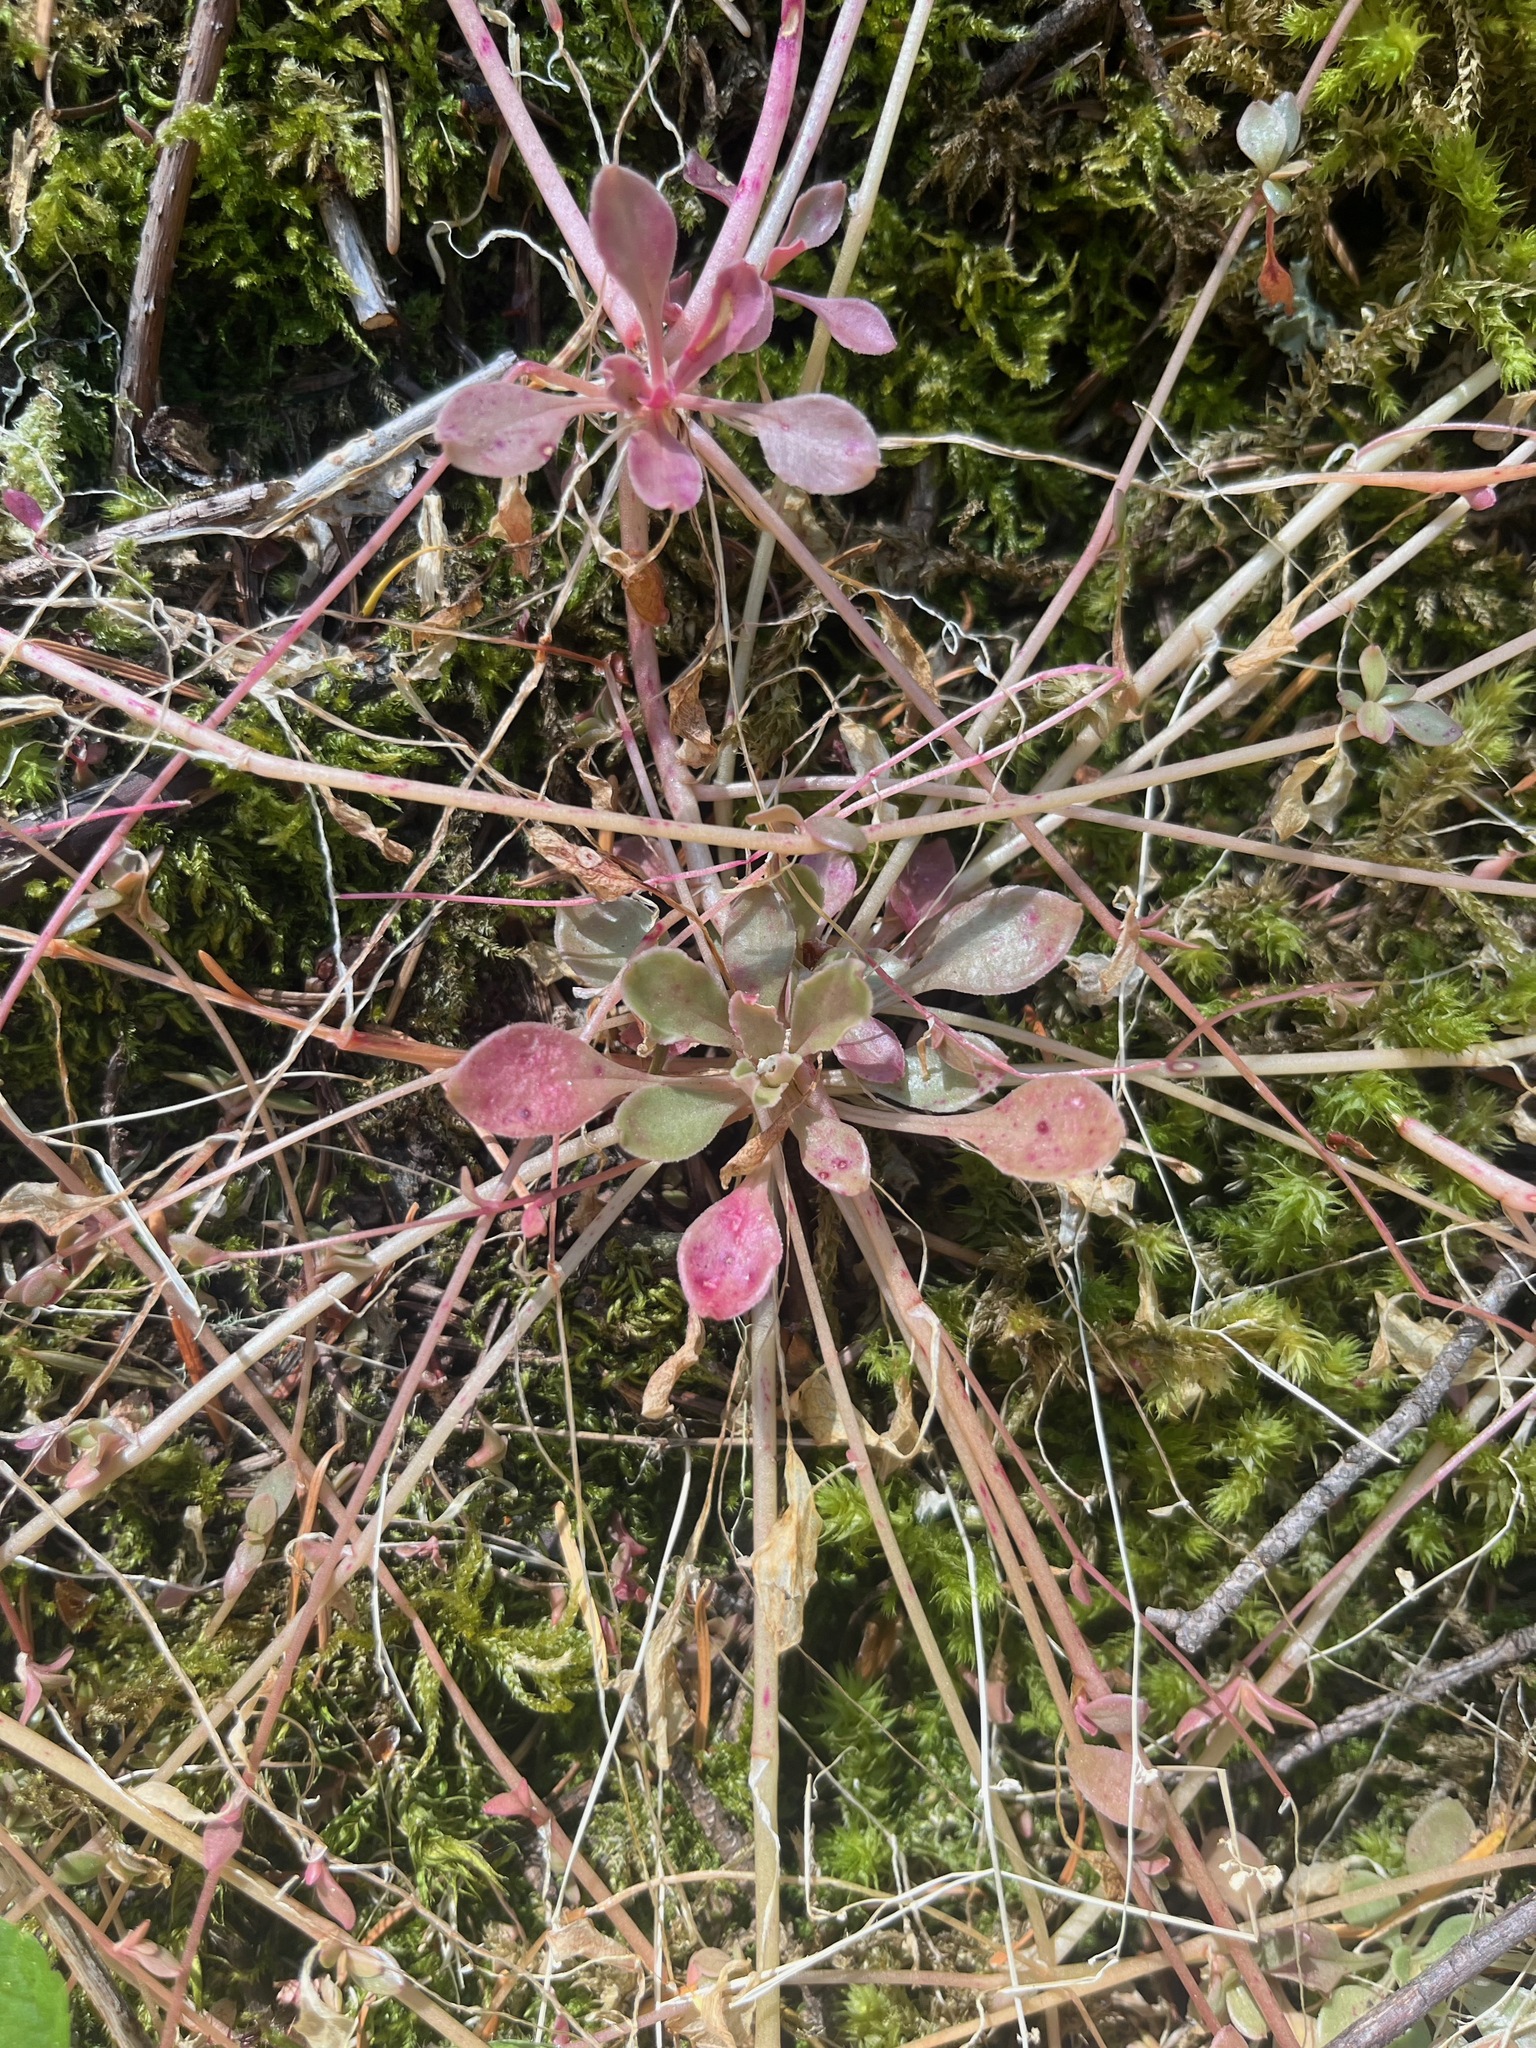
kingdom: Plantae
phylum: Tracheophyta
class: Magnoliopsida
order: Caryophyllales
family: Montiaceae
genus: Montia
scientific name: Montia parvifolia
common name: Small-leaved blinks
